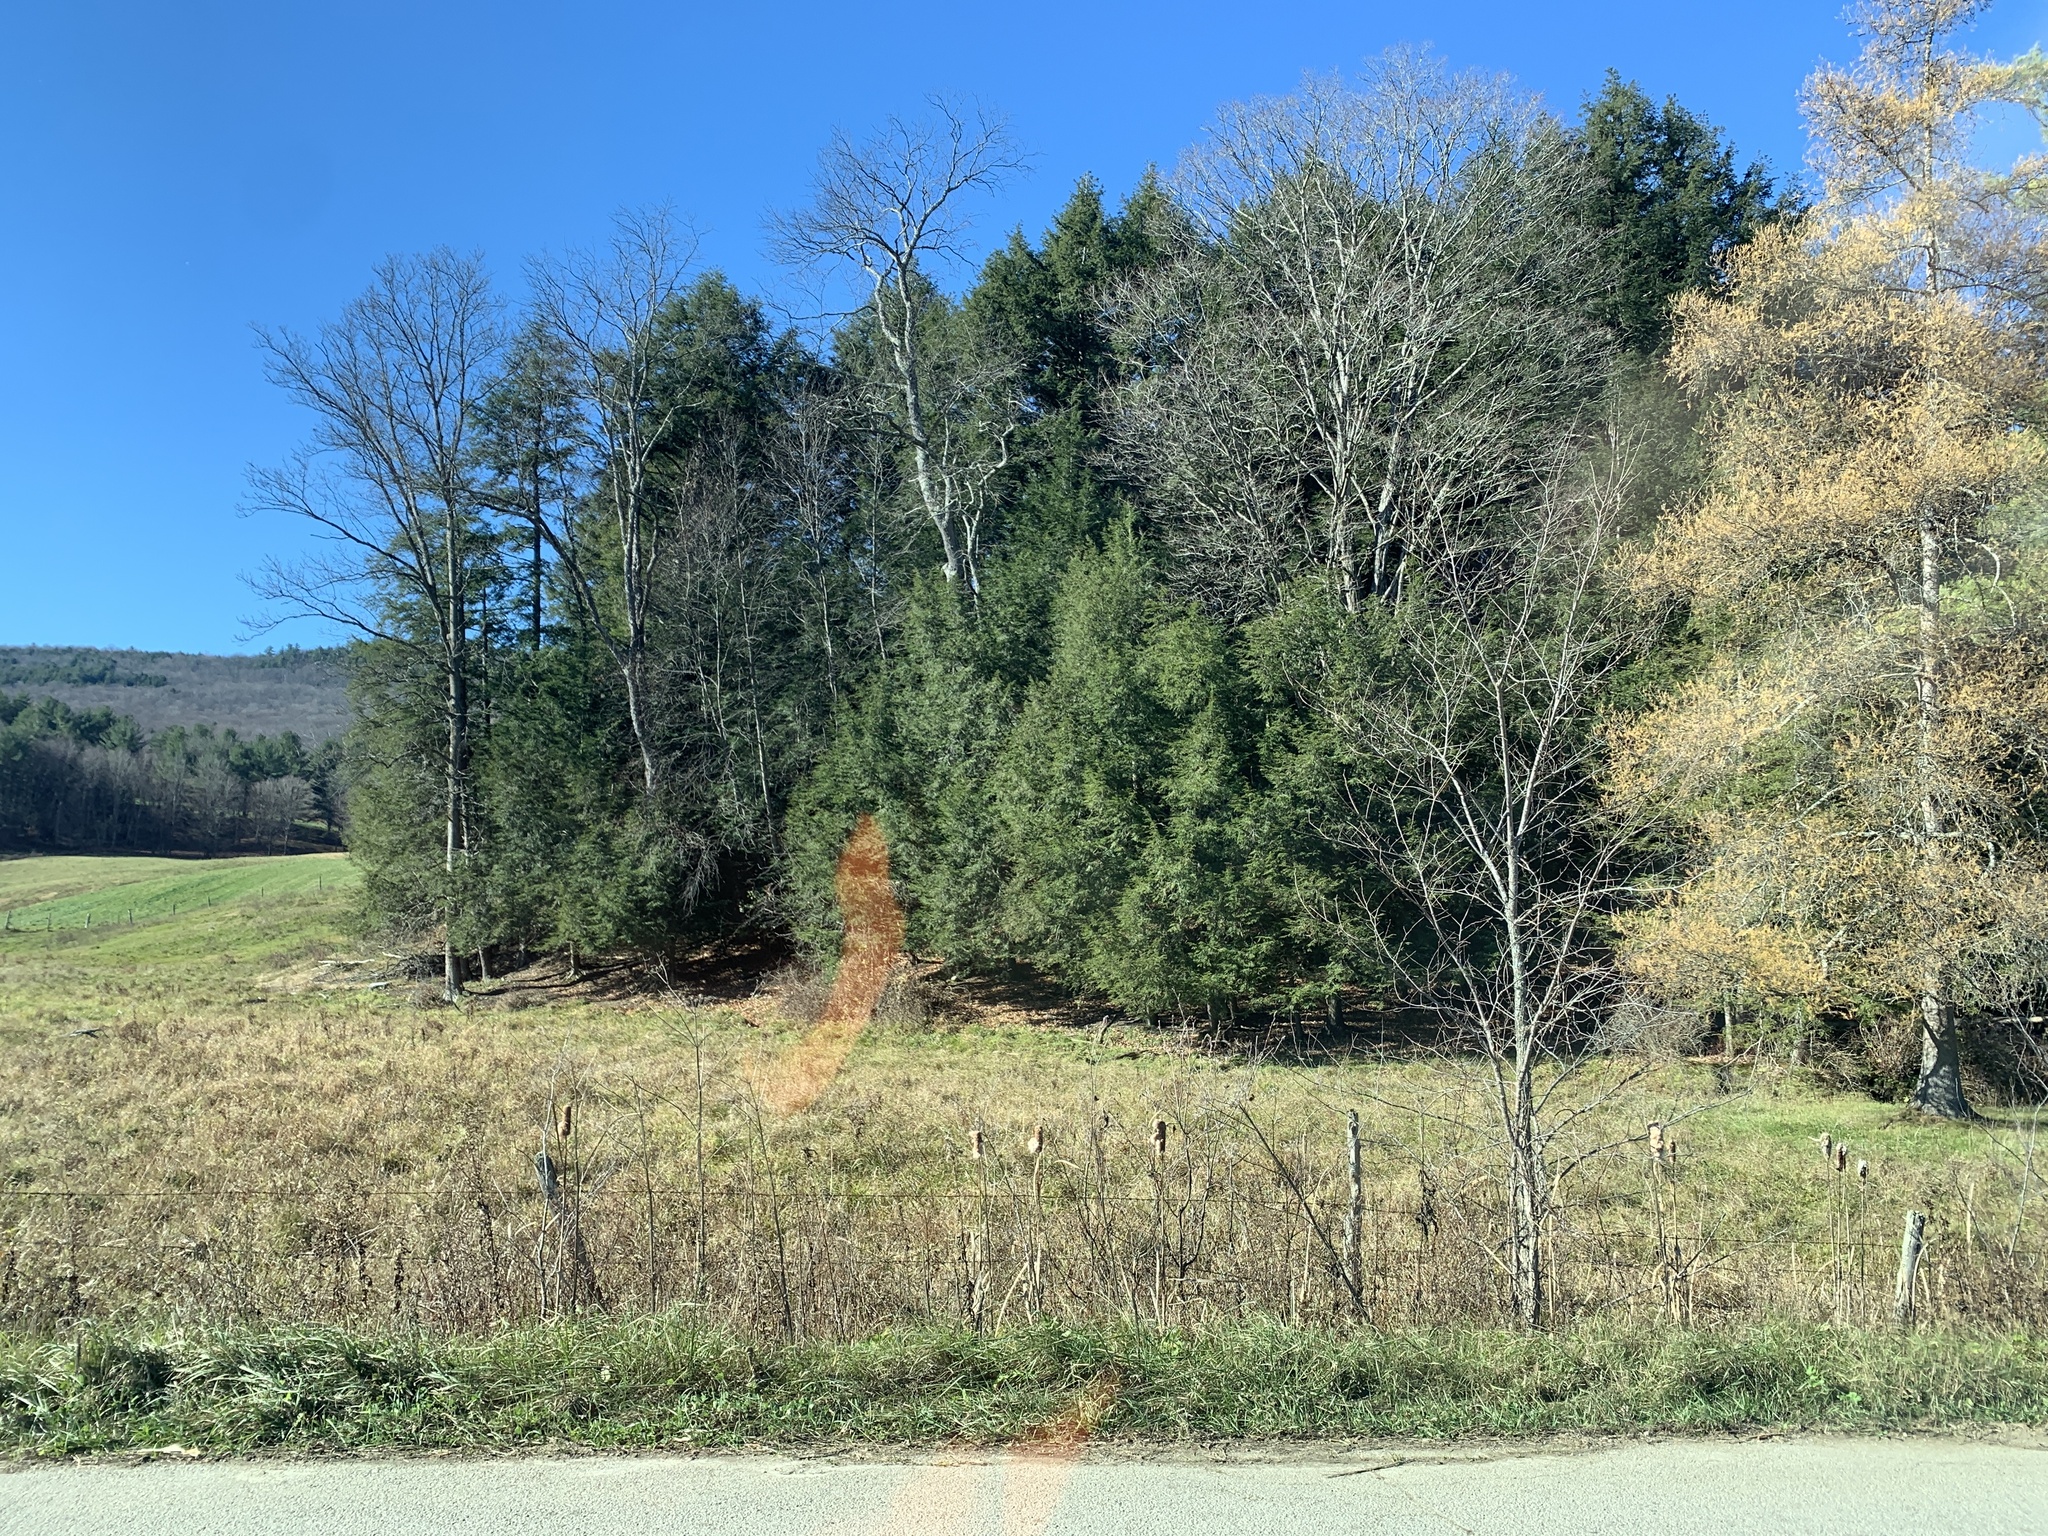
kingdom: Plantae
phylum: Tracheophyta
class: Pinopsida
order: Pinales
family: Pinaceae
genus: Tsuga
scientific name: Tsuga canadensis
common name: Eastern hemlock
